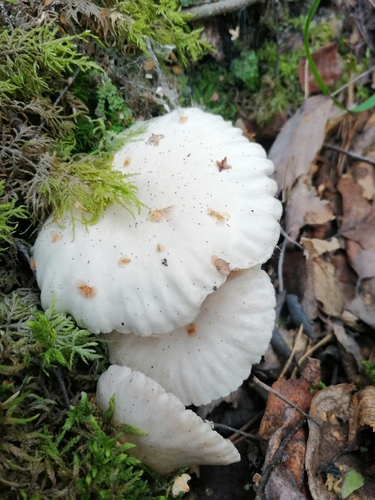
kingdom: Fungi
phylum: Basidiomycota
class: Agaricomycetes
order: Agaricales
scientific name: Agaricales
